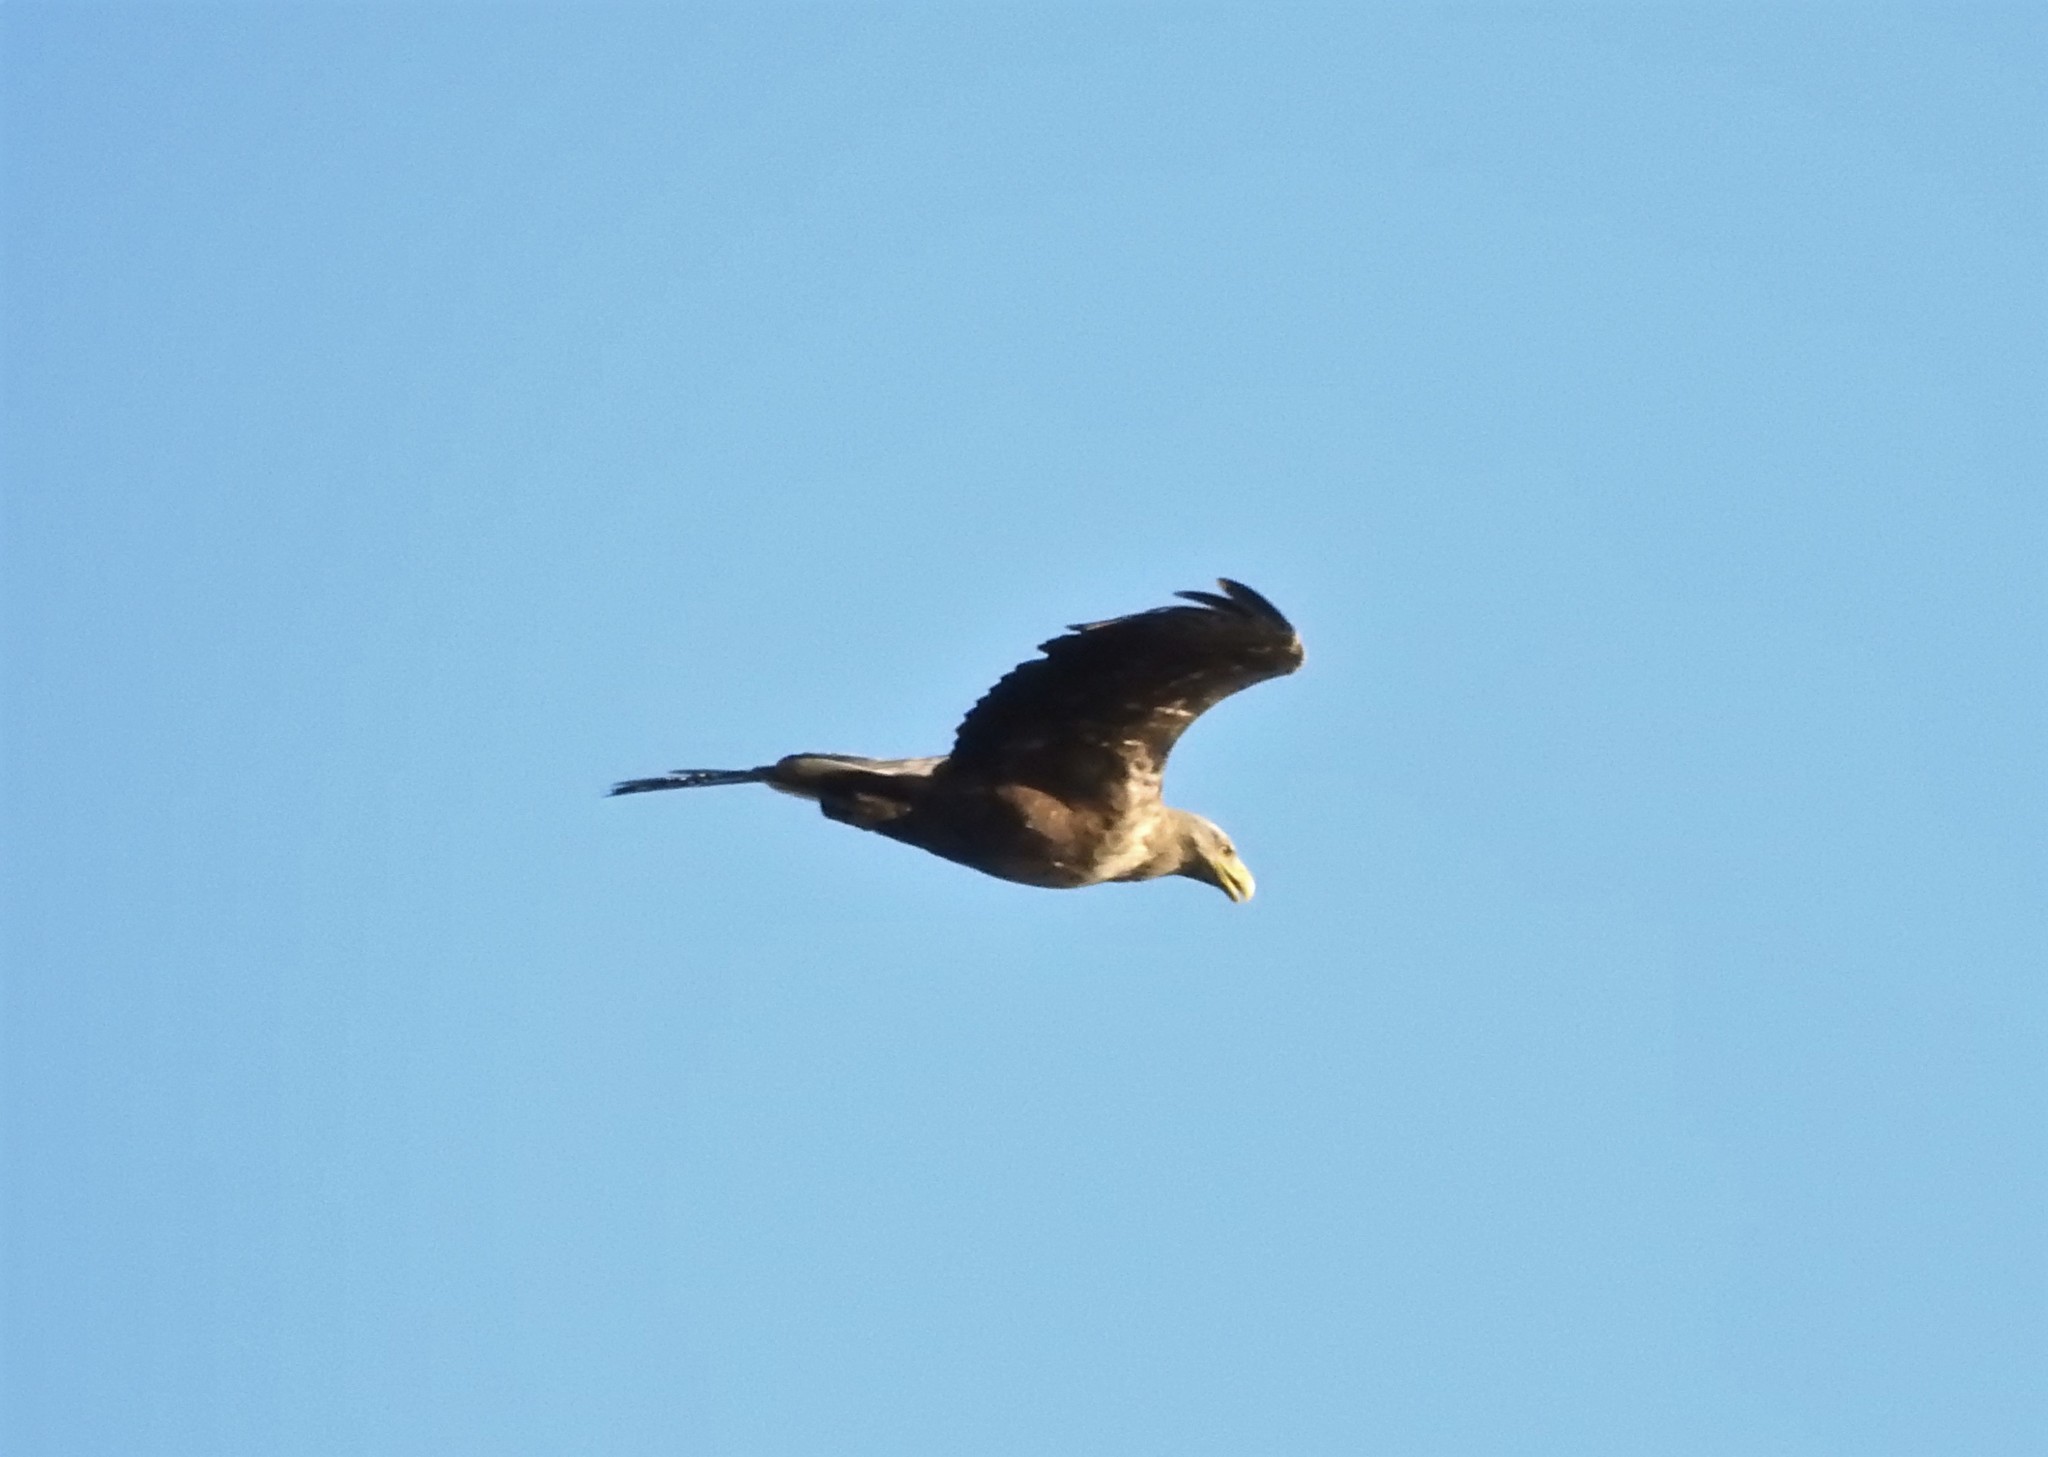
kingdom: Animalia
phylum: Chordata
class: Aves
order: Accipitriformes
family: Accipitridae
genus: Haliaeetus
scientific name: Haliaeetus albicilla
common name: White-tailed eagle
